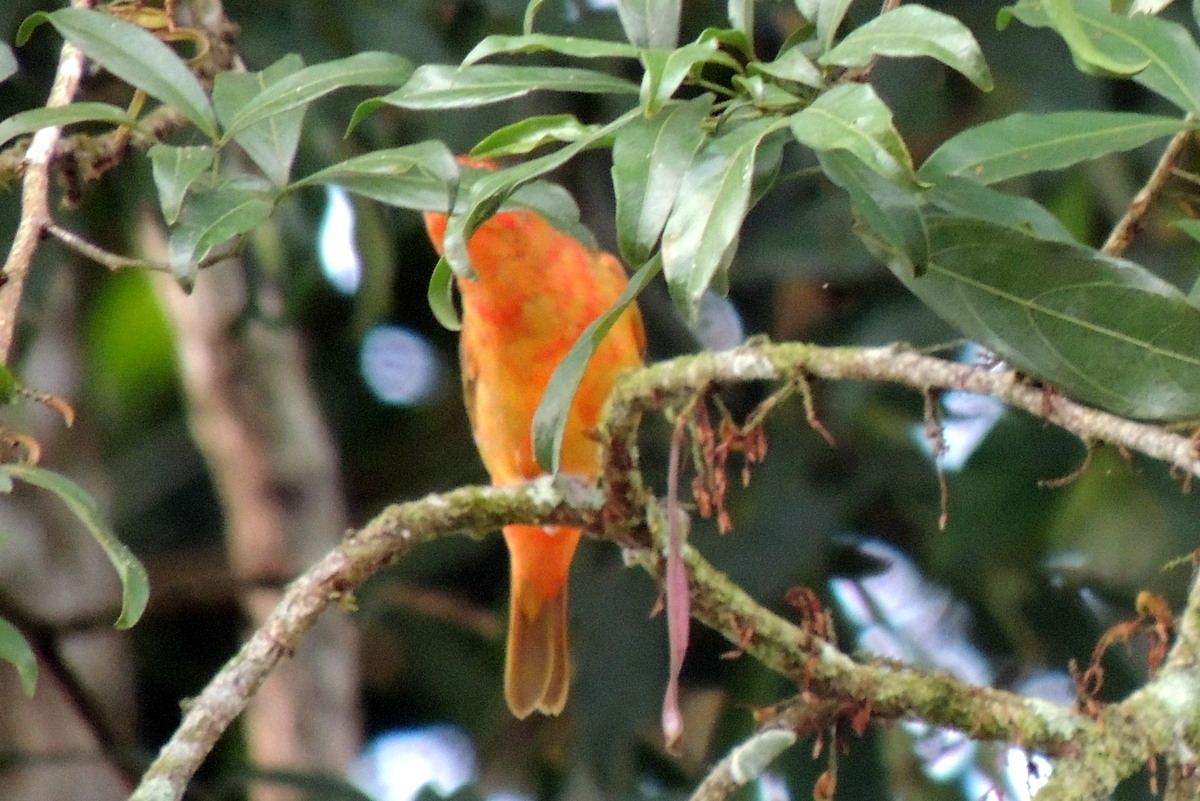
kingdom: Animalia
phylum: Chordata
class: Aves
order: Passeriformes
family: Cardinalidae
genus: Piranga
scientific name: Piranga rubra
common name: Summer tanager
